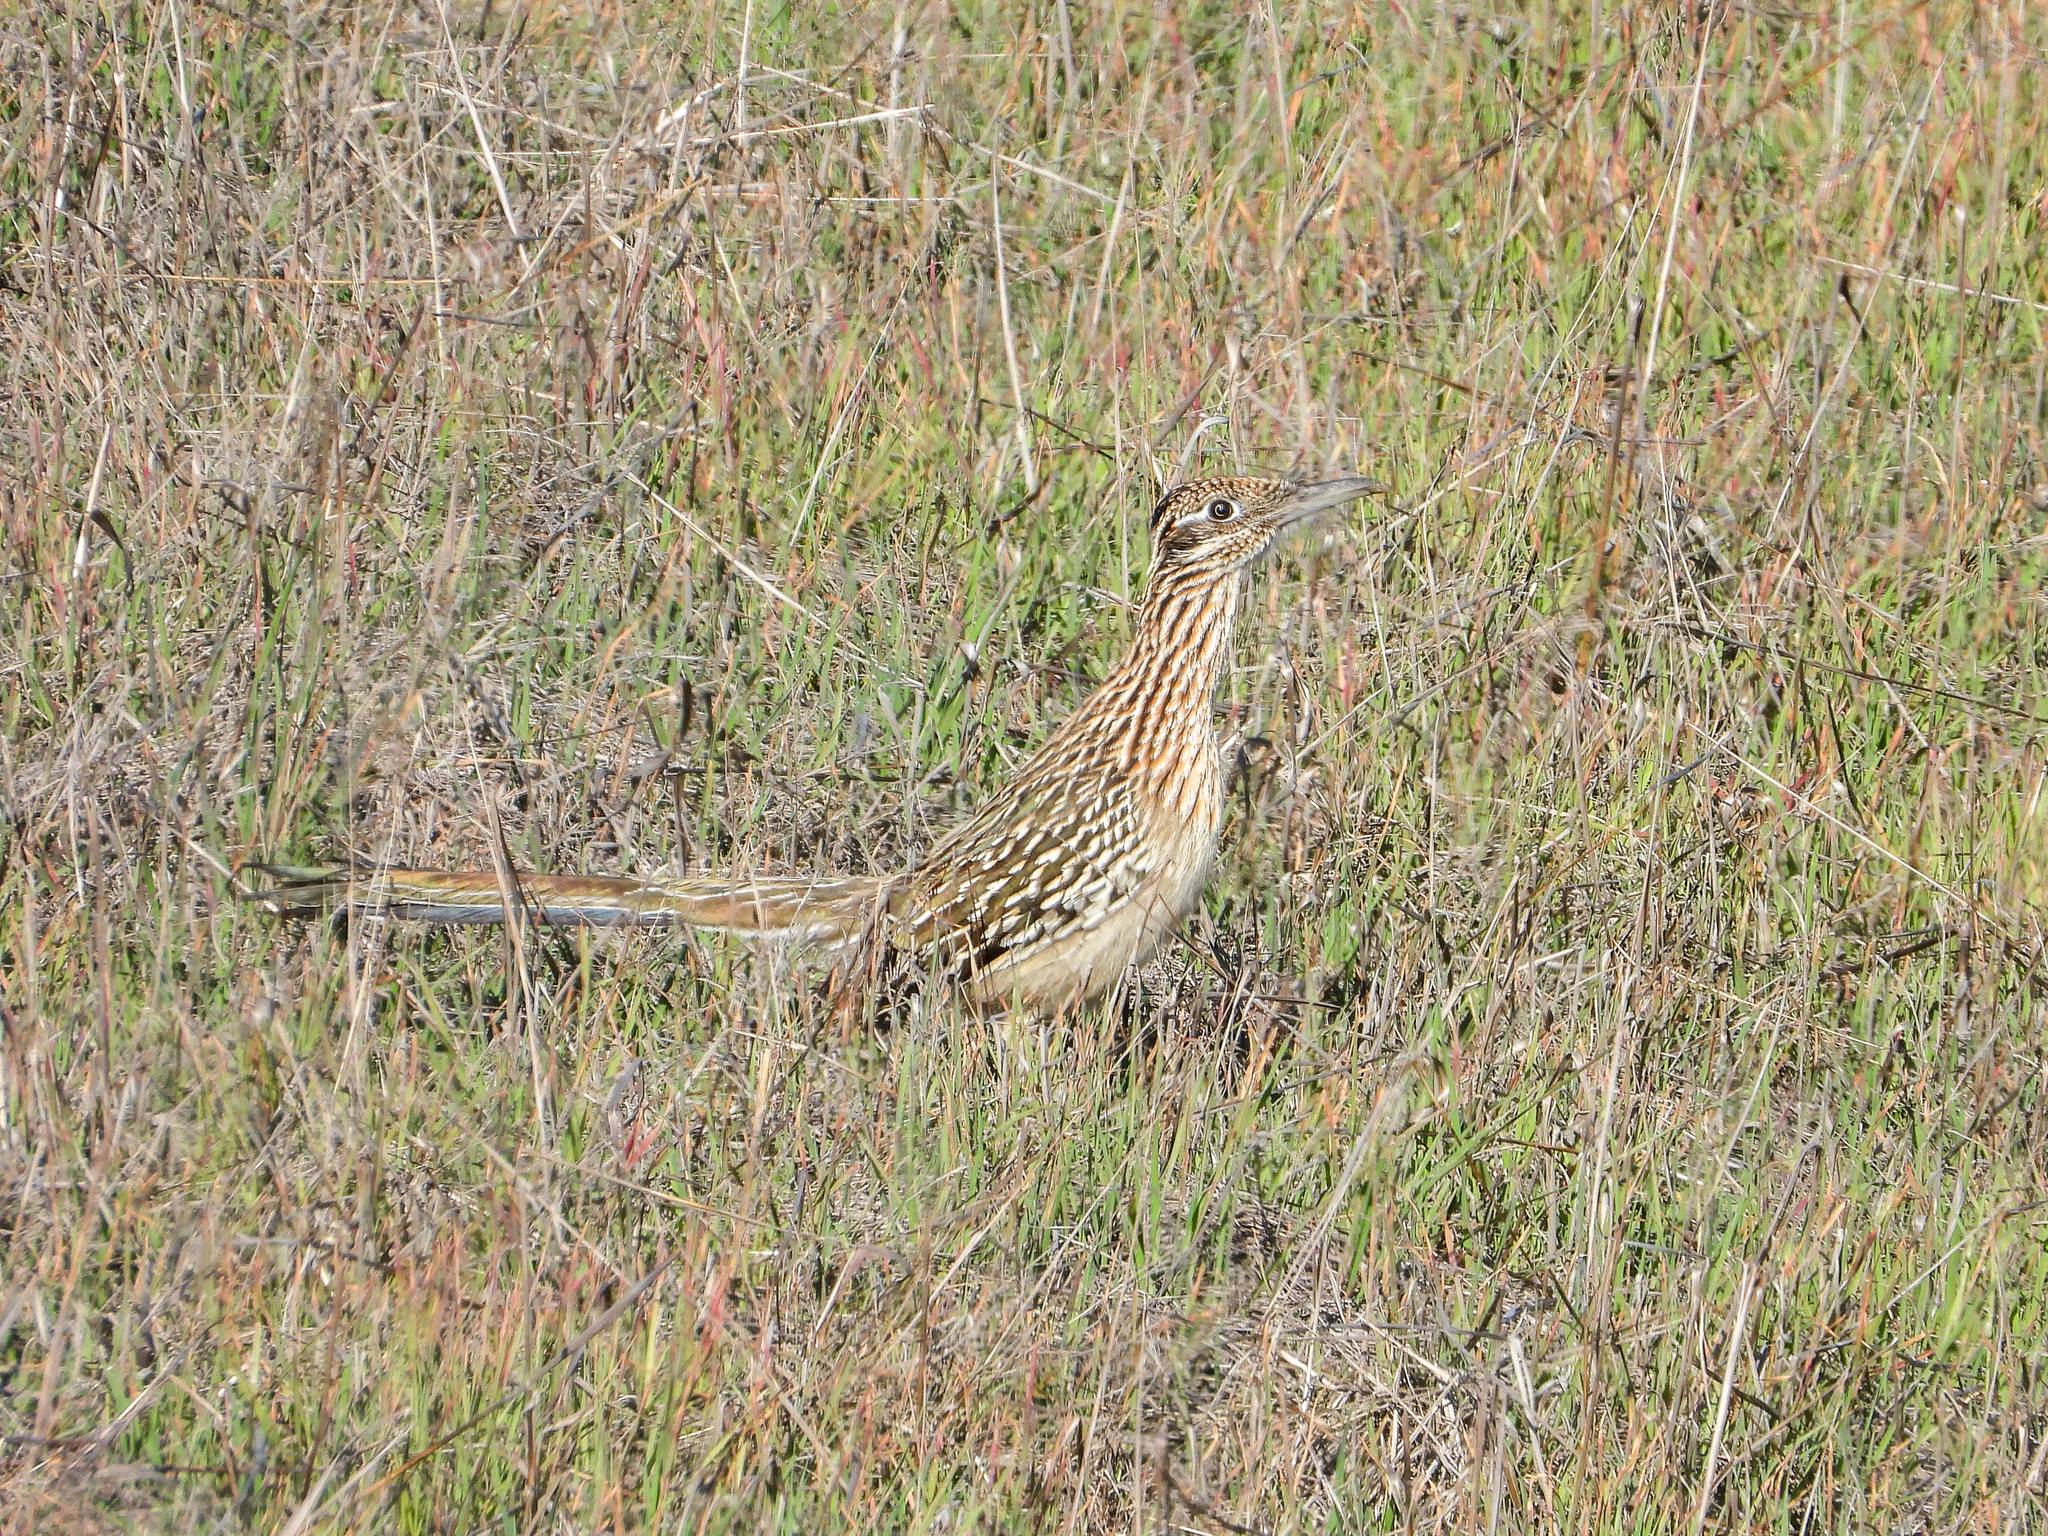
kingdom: Animalia
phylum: Chordata
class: Aves
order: Cuculiformes
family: Cuculidae
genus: Geococcyx
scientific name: Geococcyx californianus
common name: Greater roadrunner
